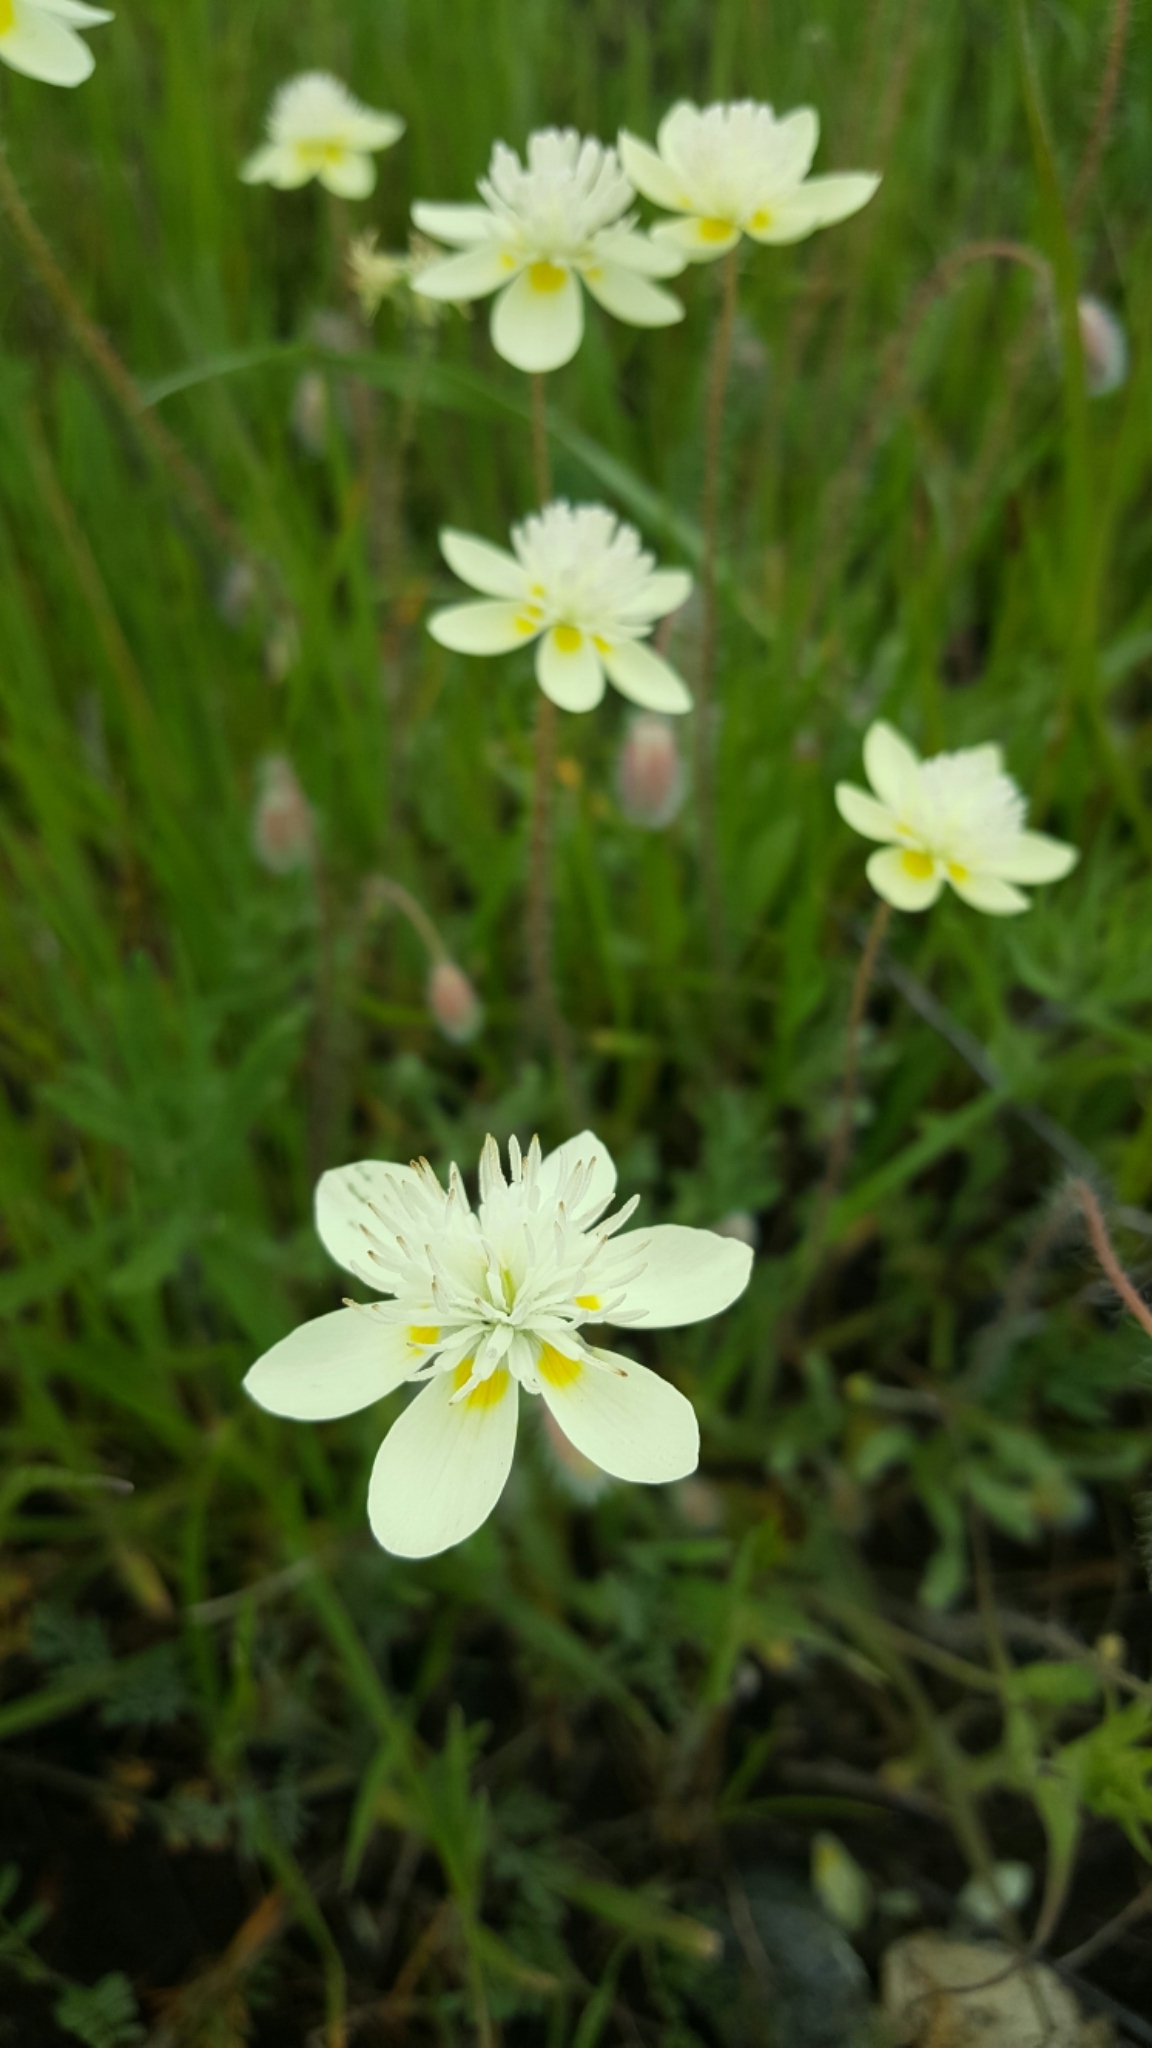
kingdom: Plantae
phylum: Tracheophyta
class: Magnoliopsida
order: Ranunculales
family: Papaveraceae
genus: Platystemon
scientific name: Platystemon californicus
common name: Cream-cups
